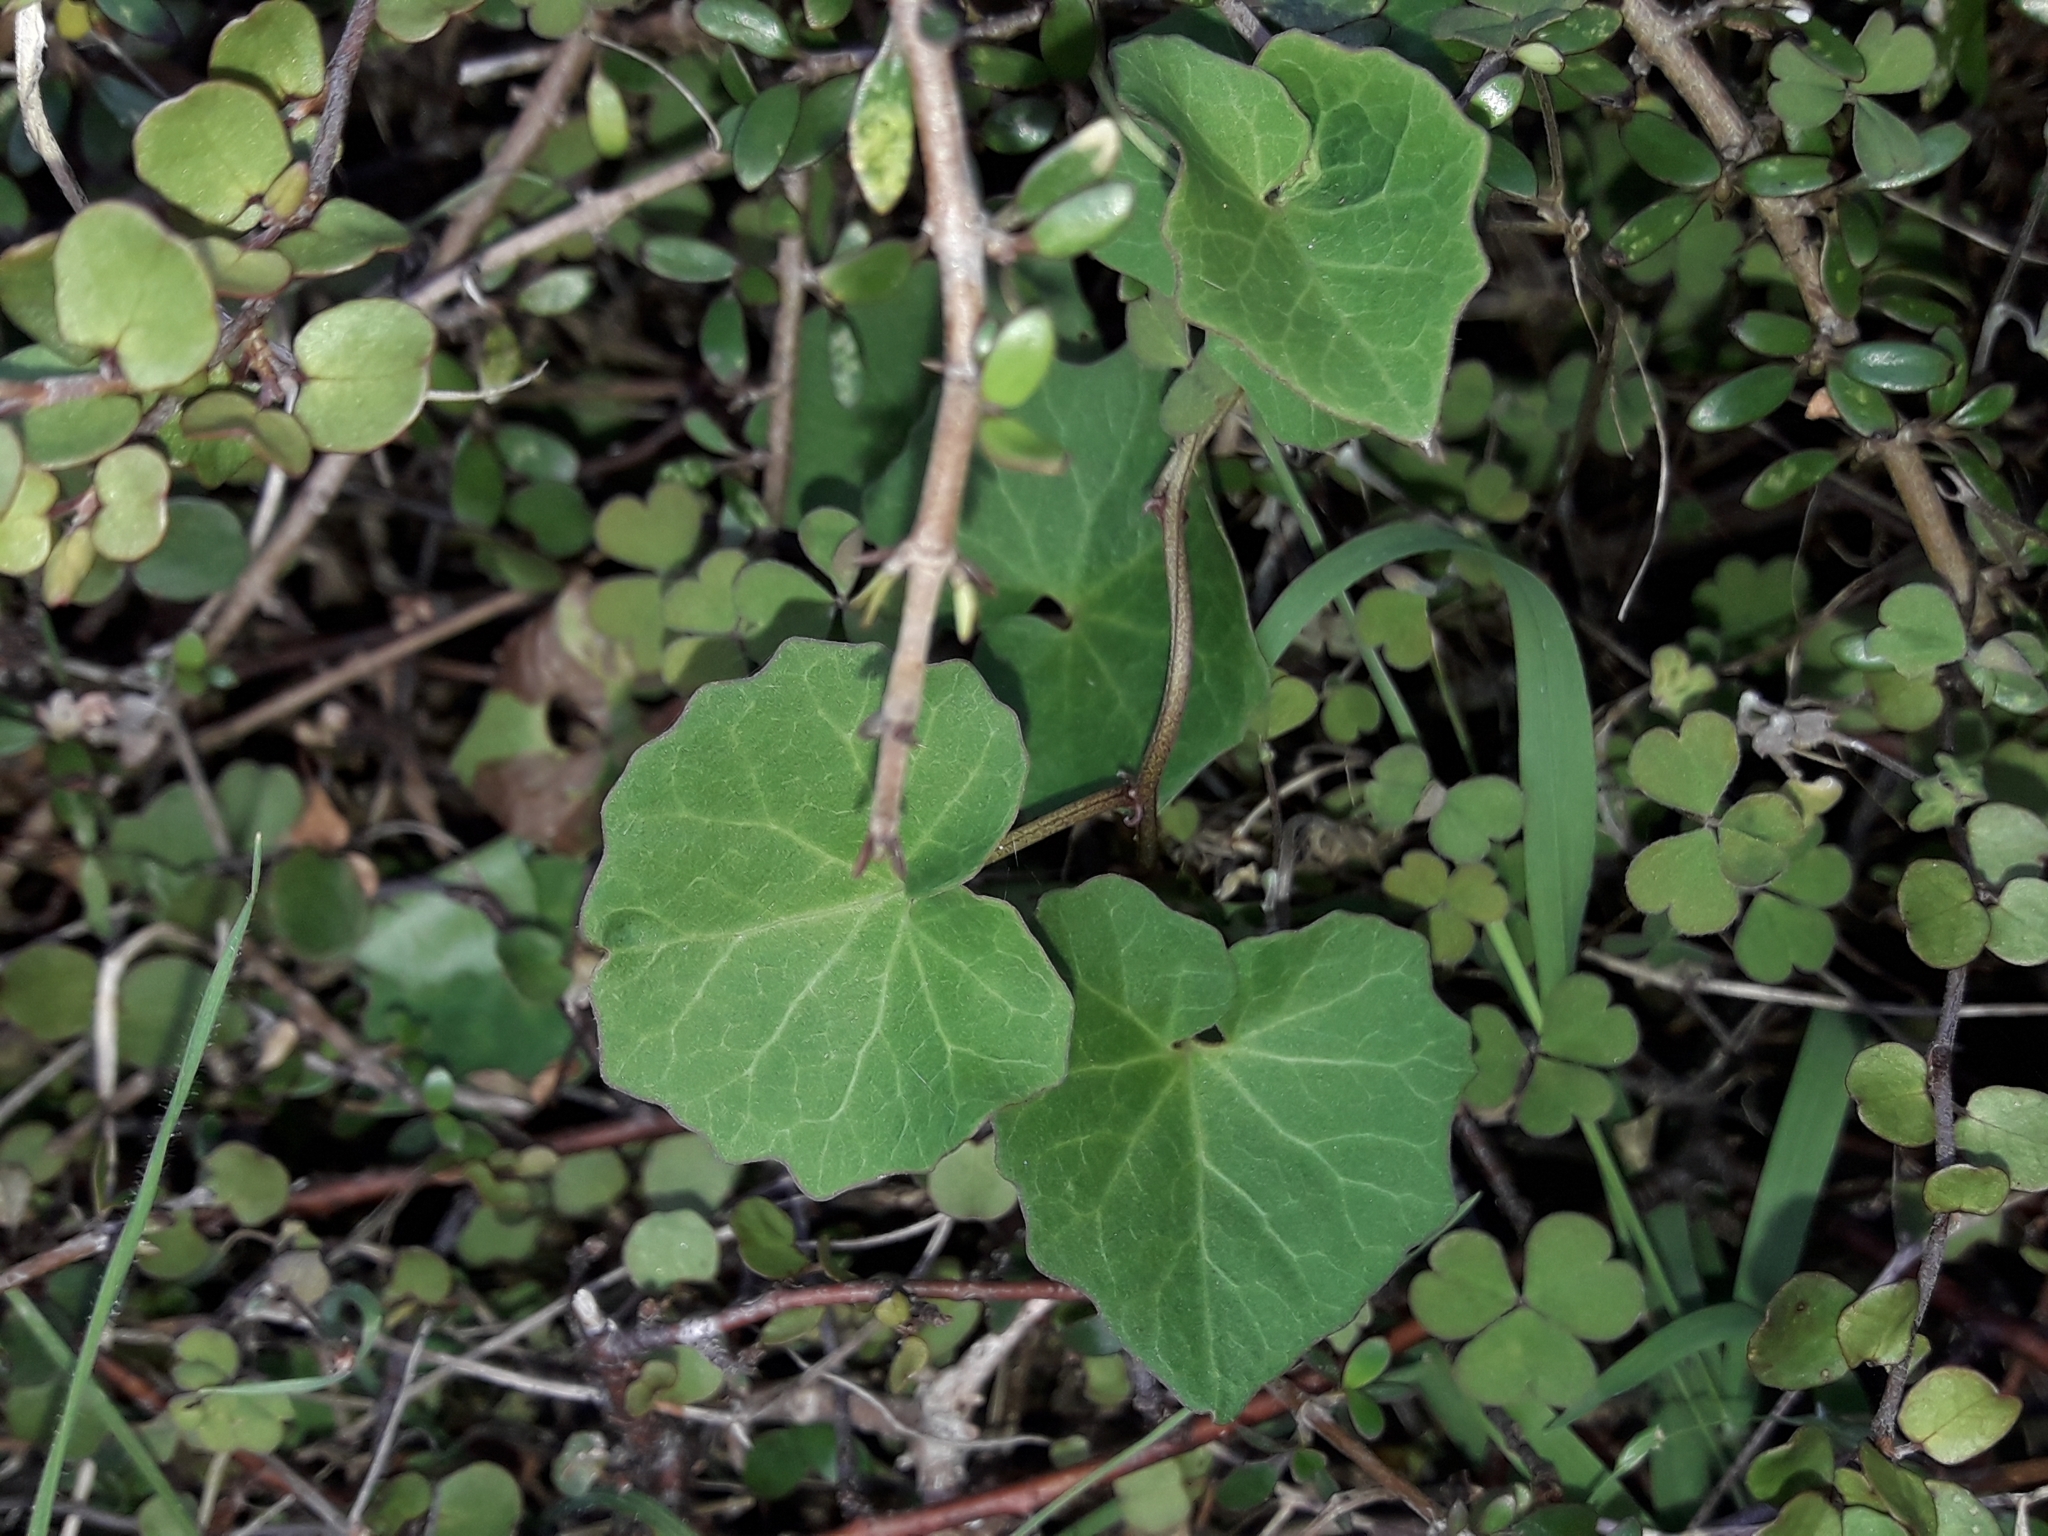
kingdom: Plantae
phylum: Tracheophyta
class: Magnoliopsida
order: Solanales
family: Convolvulaceae
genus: Calystegia
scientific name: Calystegia tuguriorum
